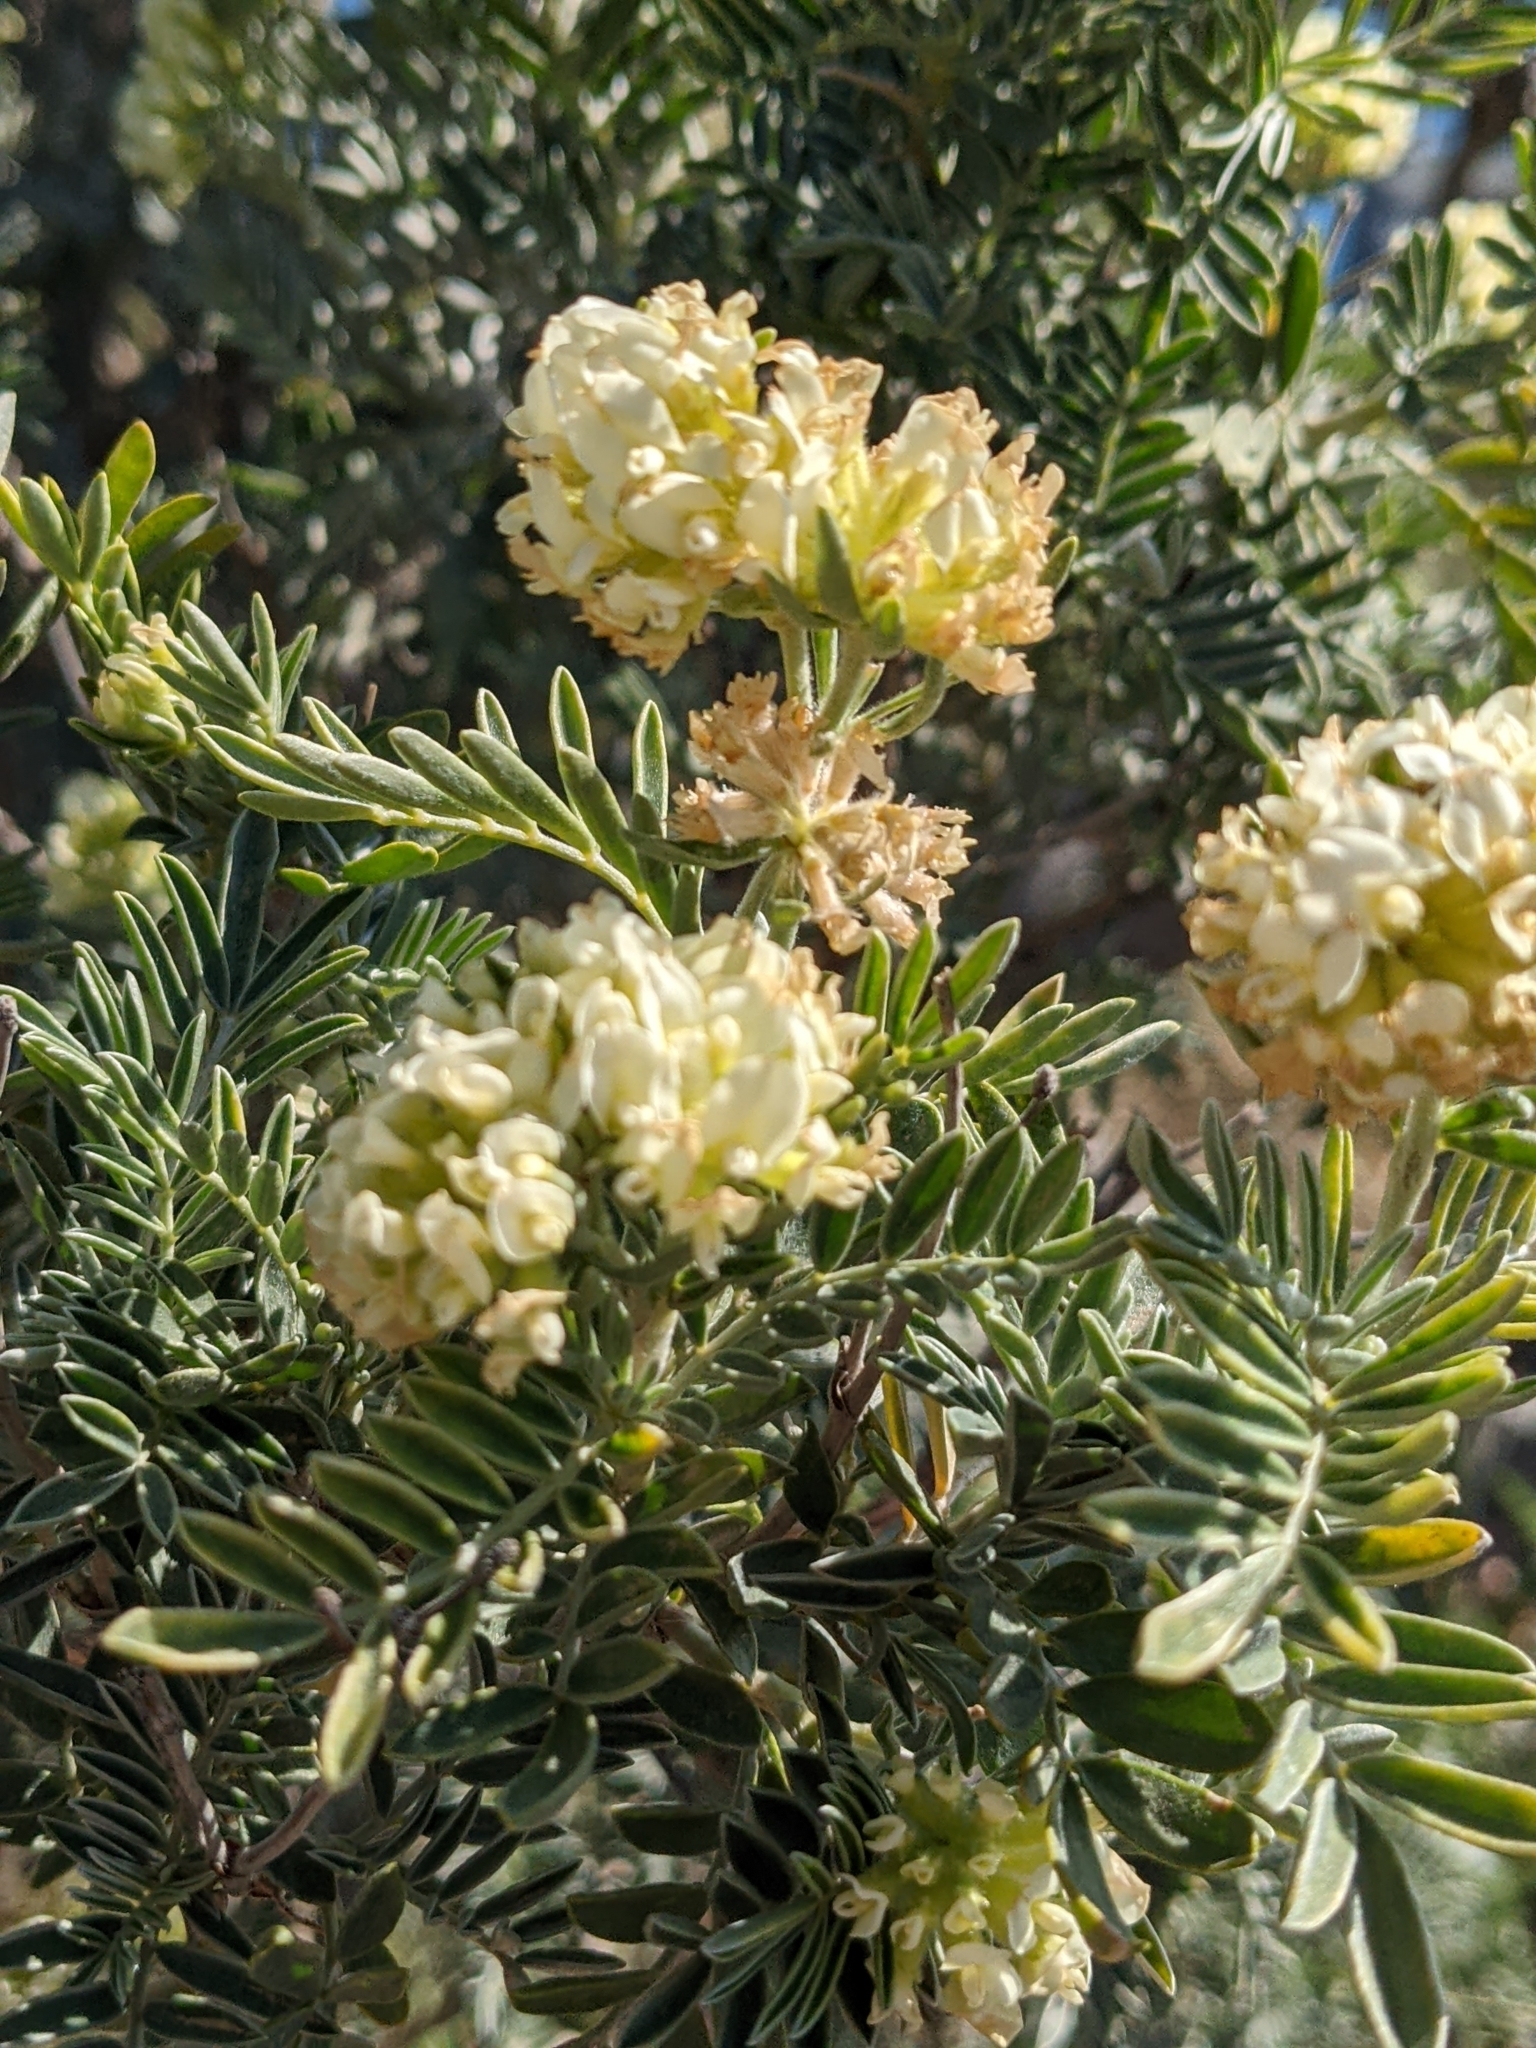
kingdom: Plantae
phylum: Tracheophyta
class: Magnoliopsida
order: Fabales
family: Fabaceae
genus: Anthyllis
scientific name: Anthyllis barba-jovis
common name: Jupiter's-beard
